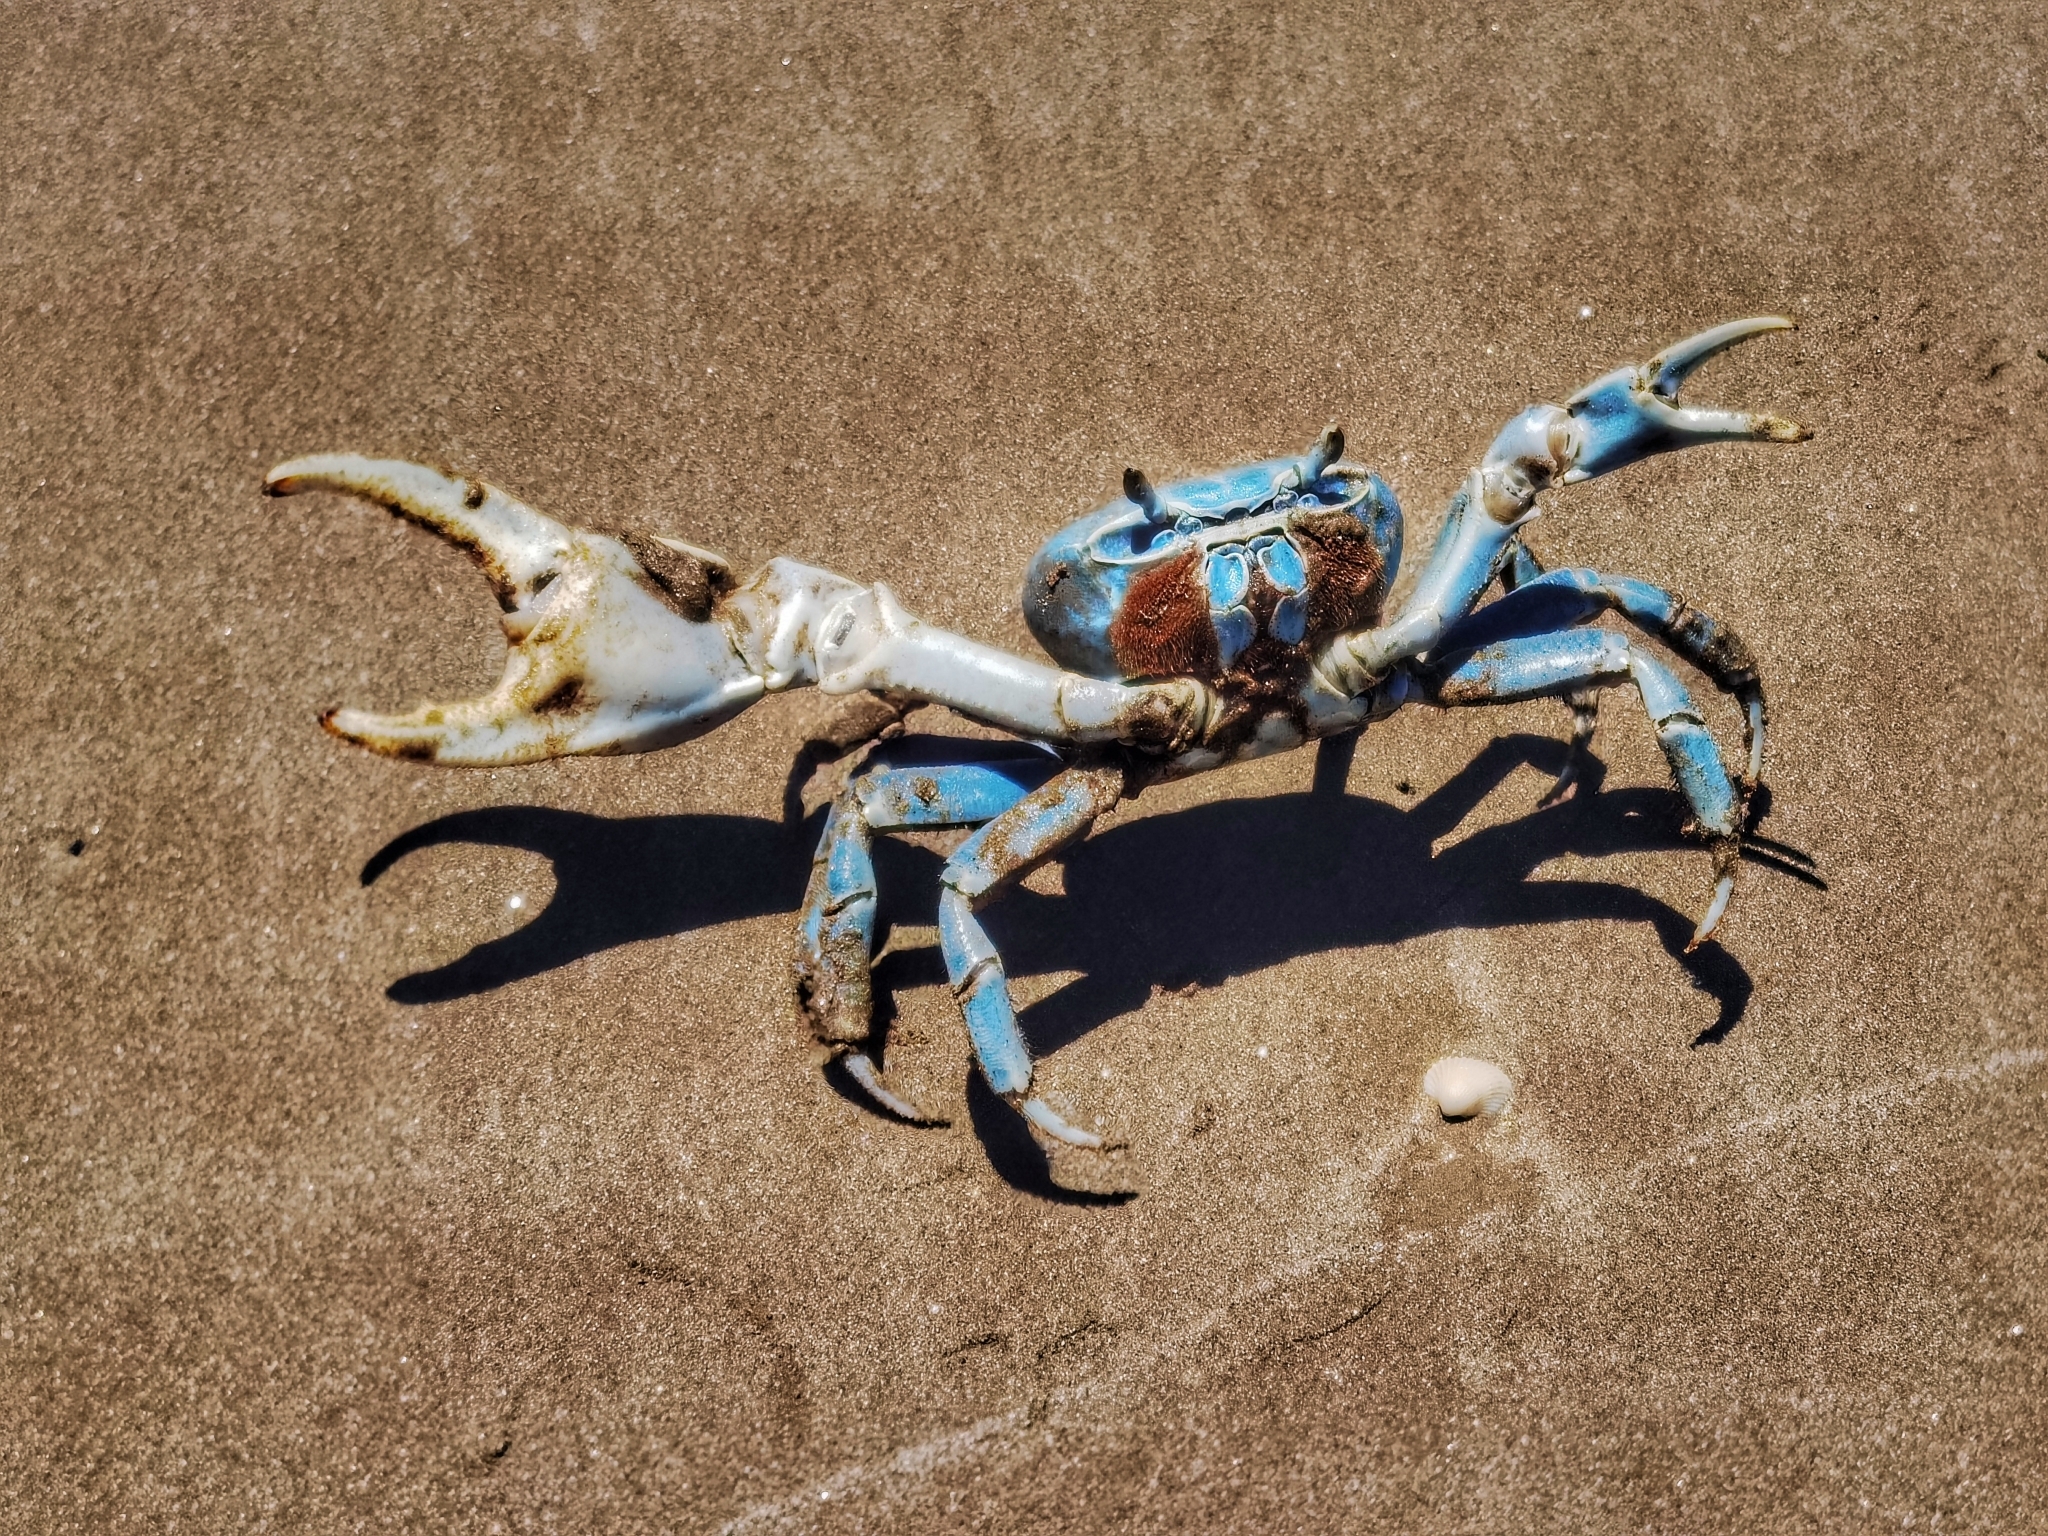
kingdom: Animalia
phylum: Arthropoda
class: Malacostraca
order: Decapoda
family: Gecarcinidae
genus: Cardisoma
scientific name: Cardisoma guanhumi
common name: Great land crab
